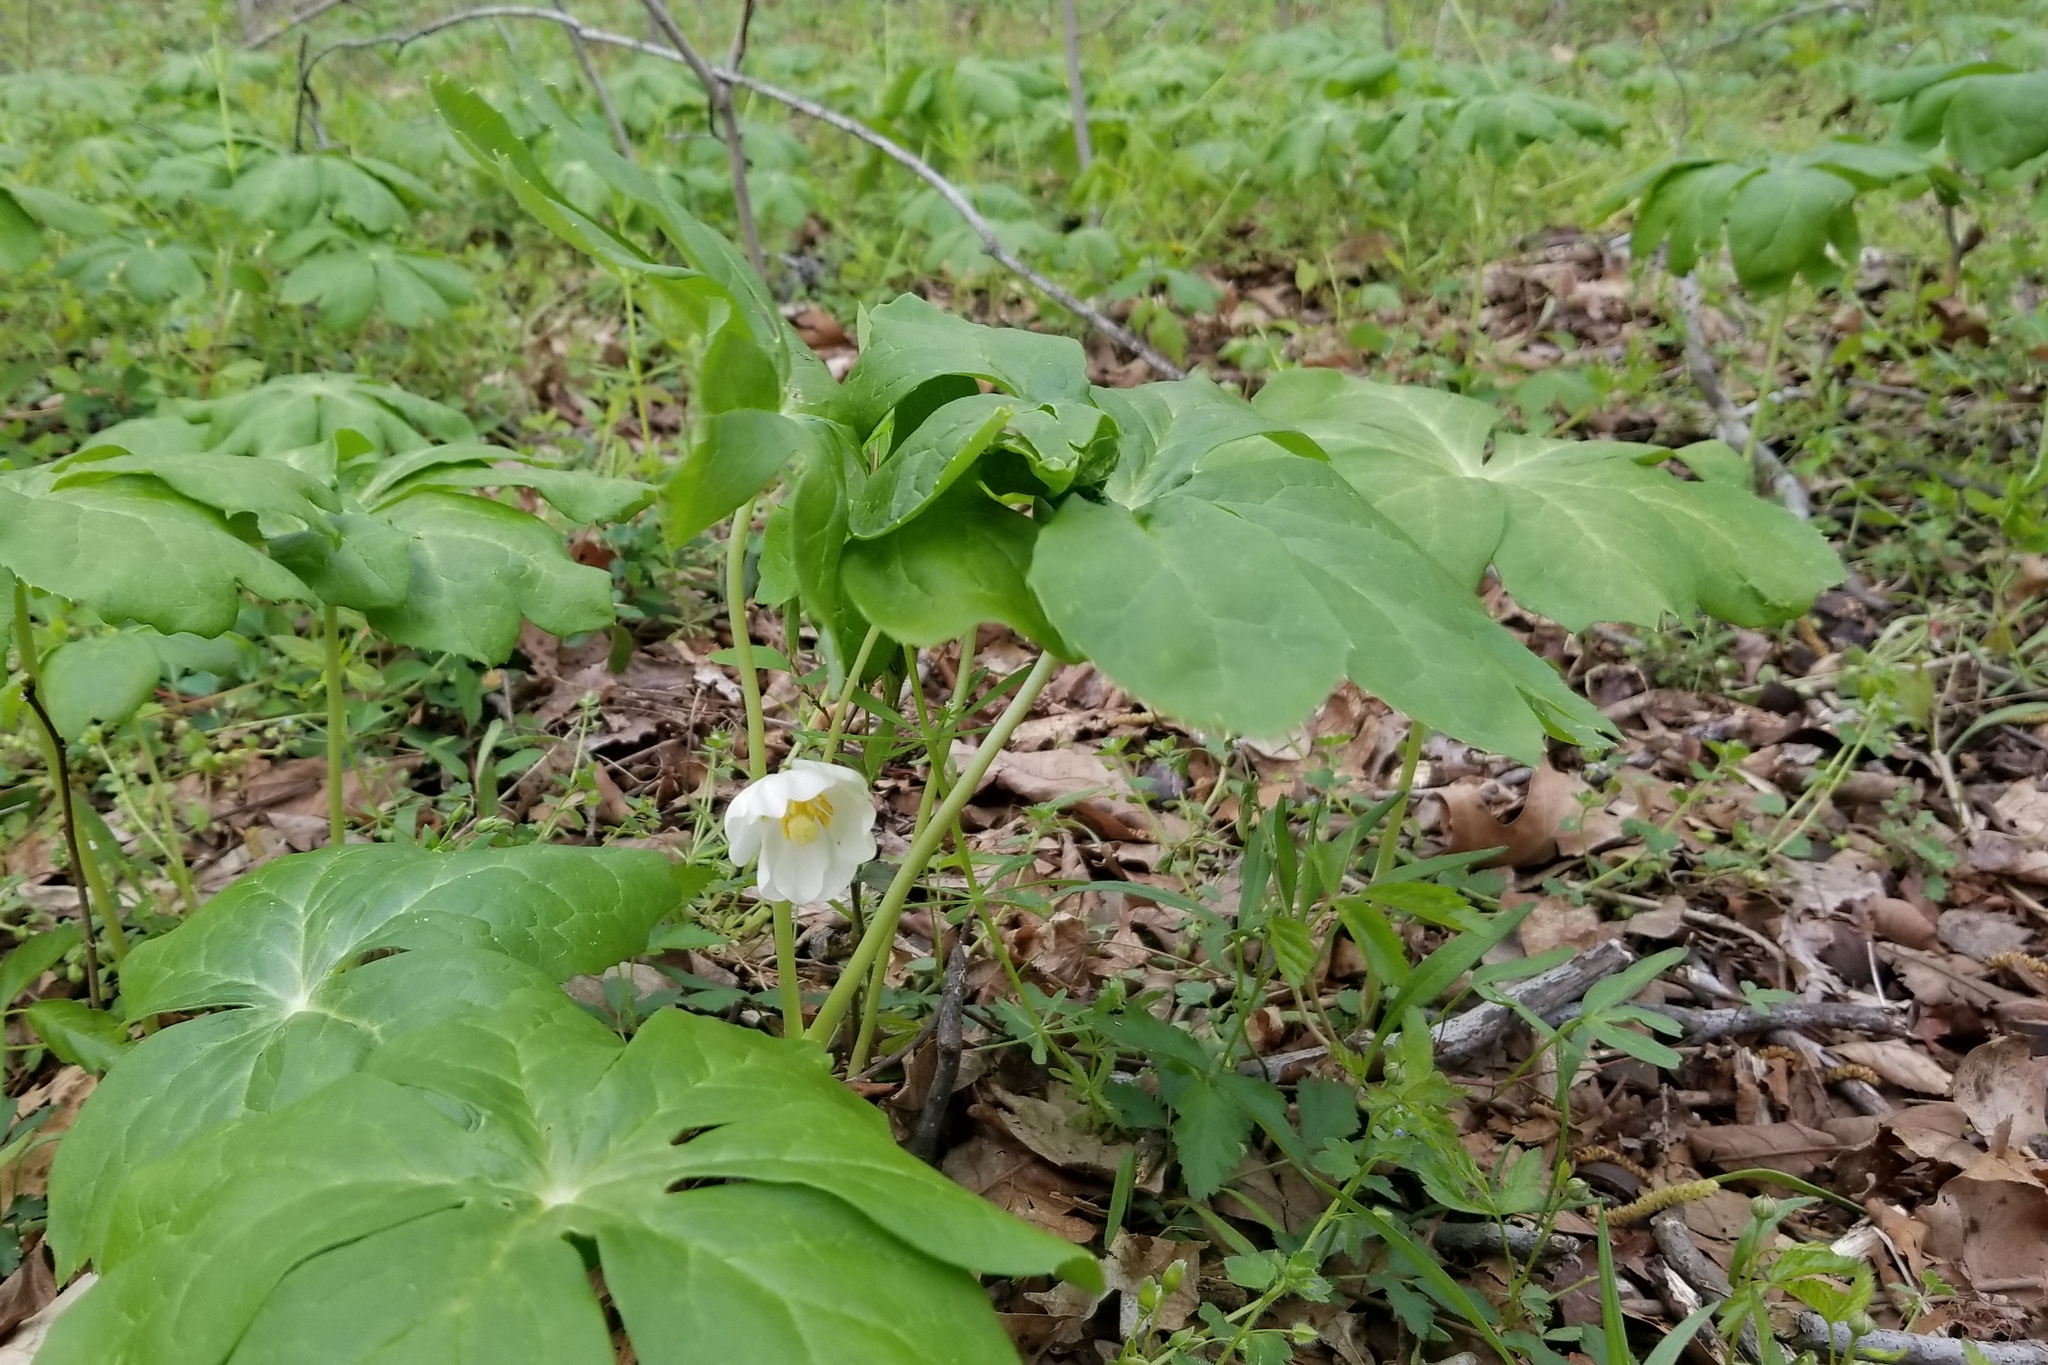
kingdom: Plantae
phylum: Tracheophyta
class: Magnoliopsida
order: Ranunculales
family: Berberidaceae
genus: Podophyllum
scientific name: Podophyllum peltatum
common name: Wild mandrake
